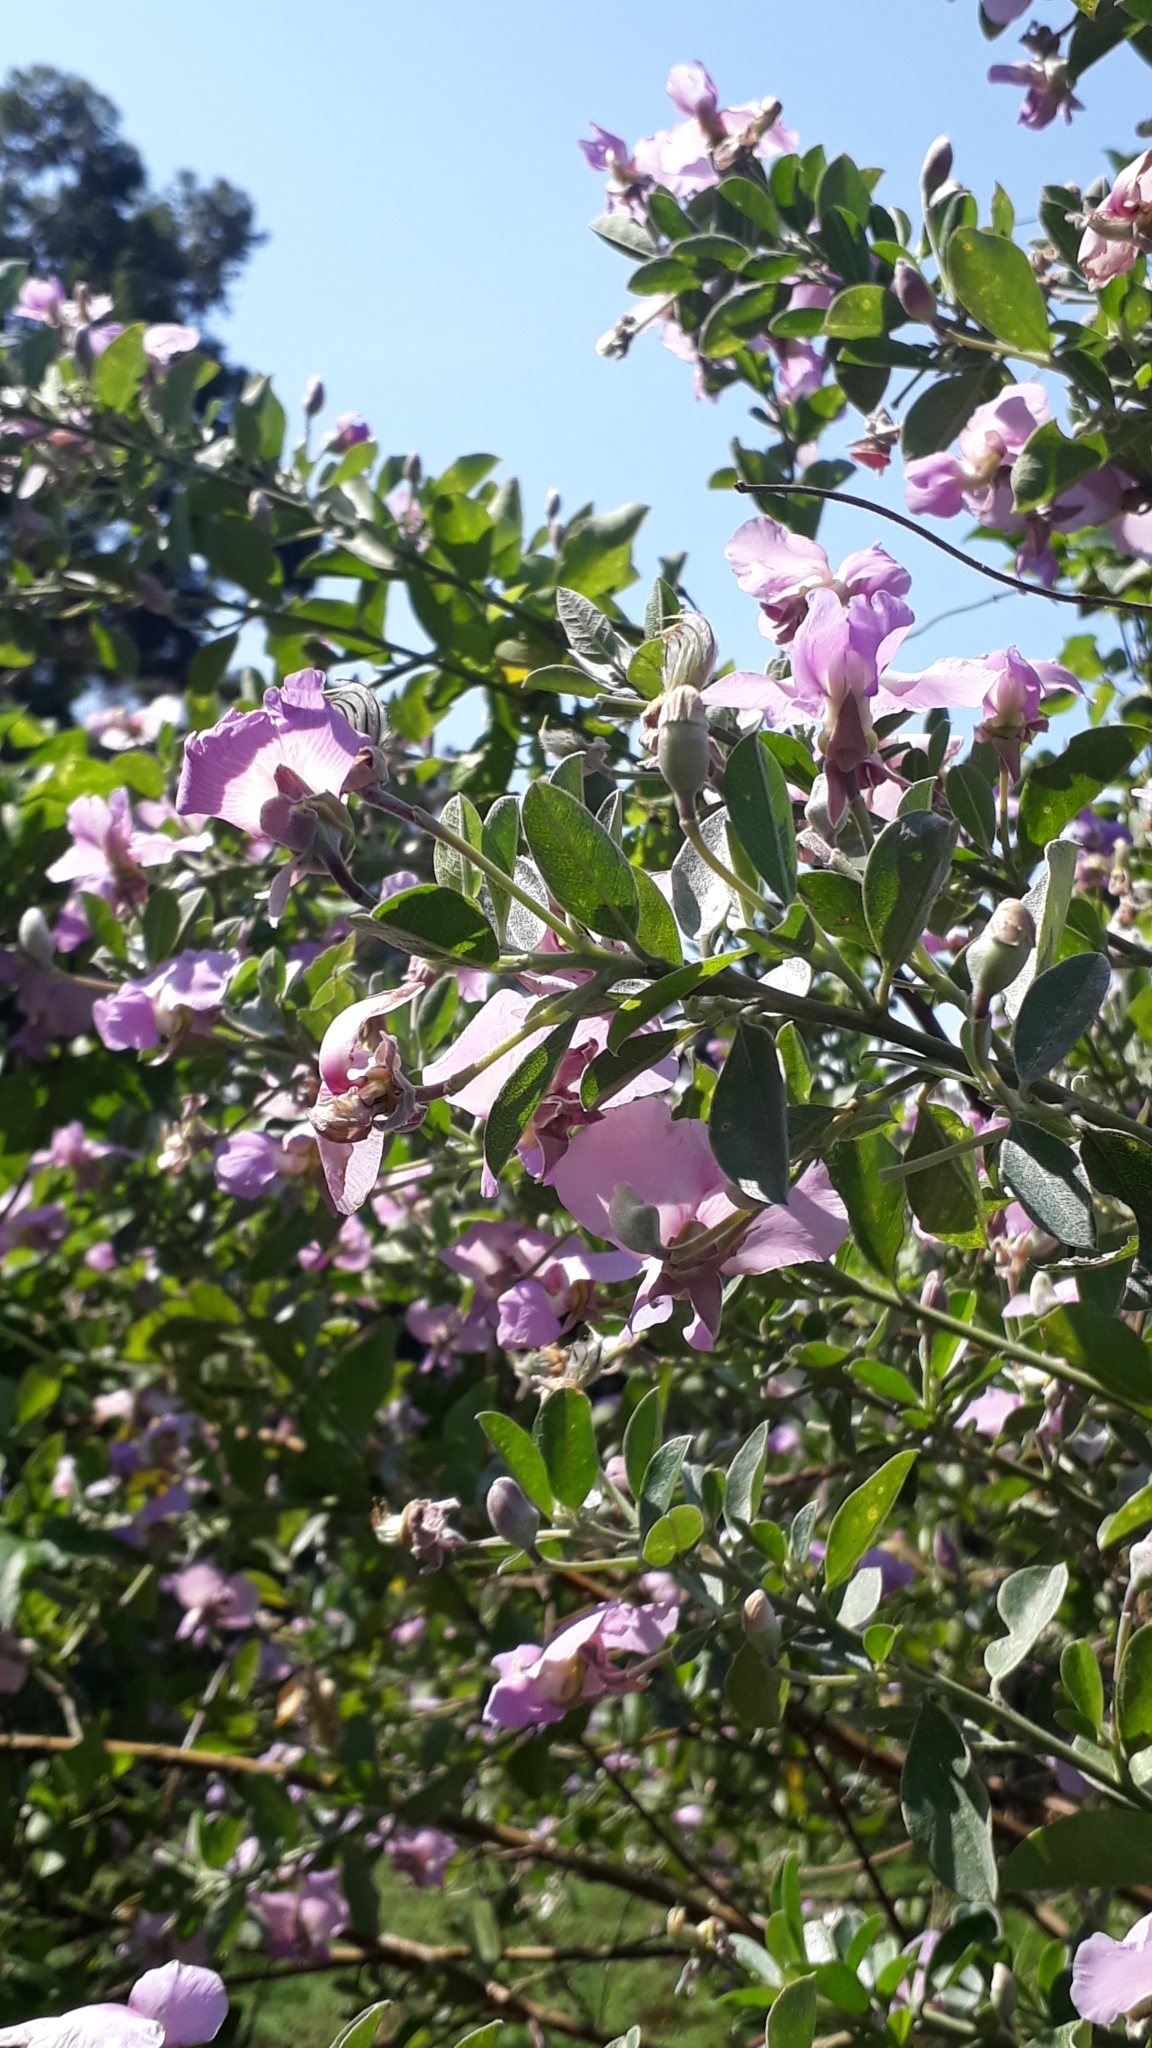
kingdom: Plantae
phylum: Tracheophyta
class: Magnoliopsida
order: Fabales
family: Fabaceae
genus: Podalyria
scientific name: Podalyria calyptrata
